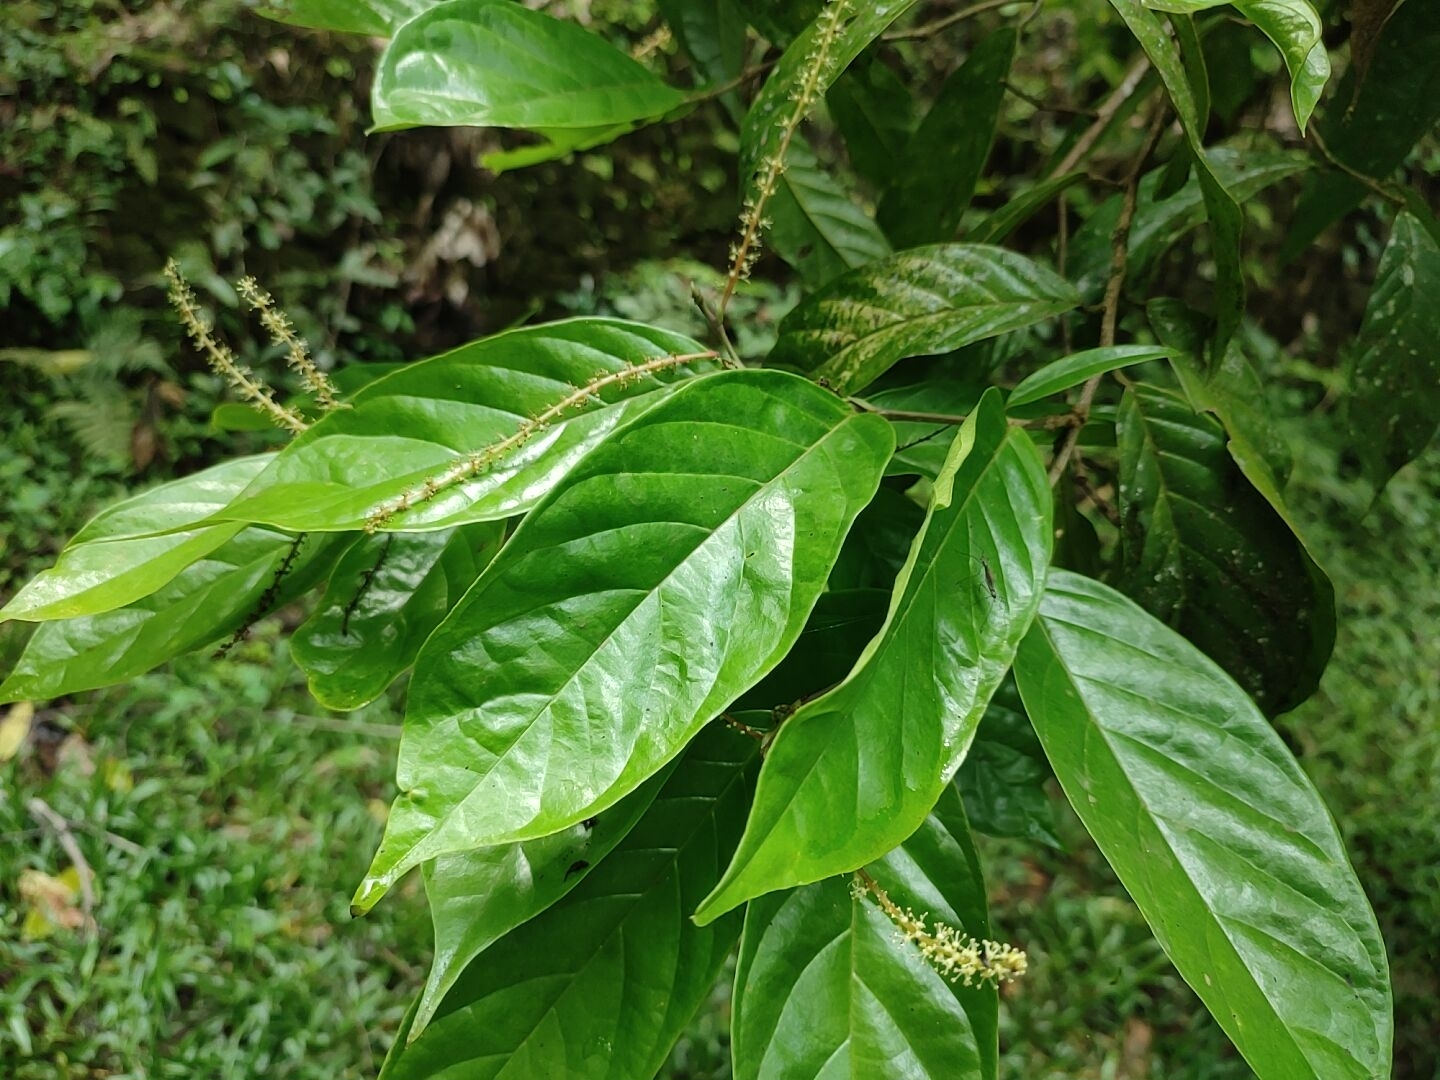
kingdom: Plantae
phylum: Tracheophyta
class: Magnoliopsida
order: Malpighiales
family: Phyllanthaceae
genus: Antidesma
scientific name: Antidesma montanum
